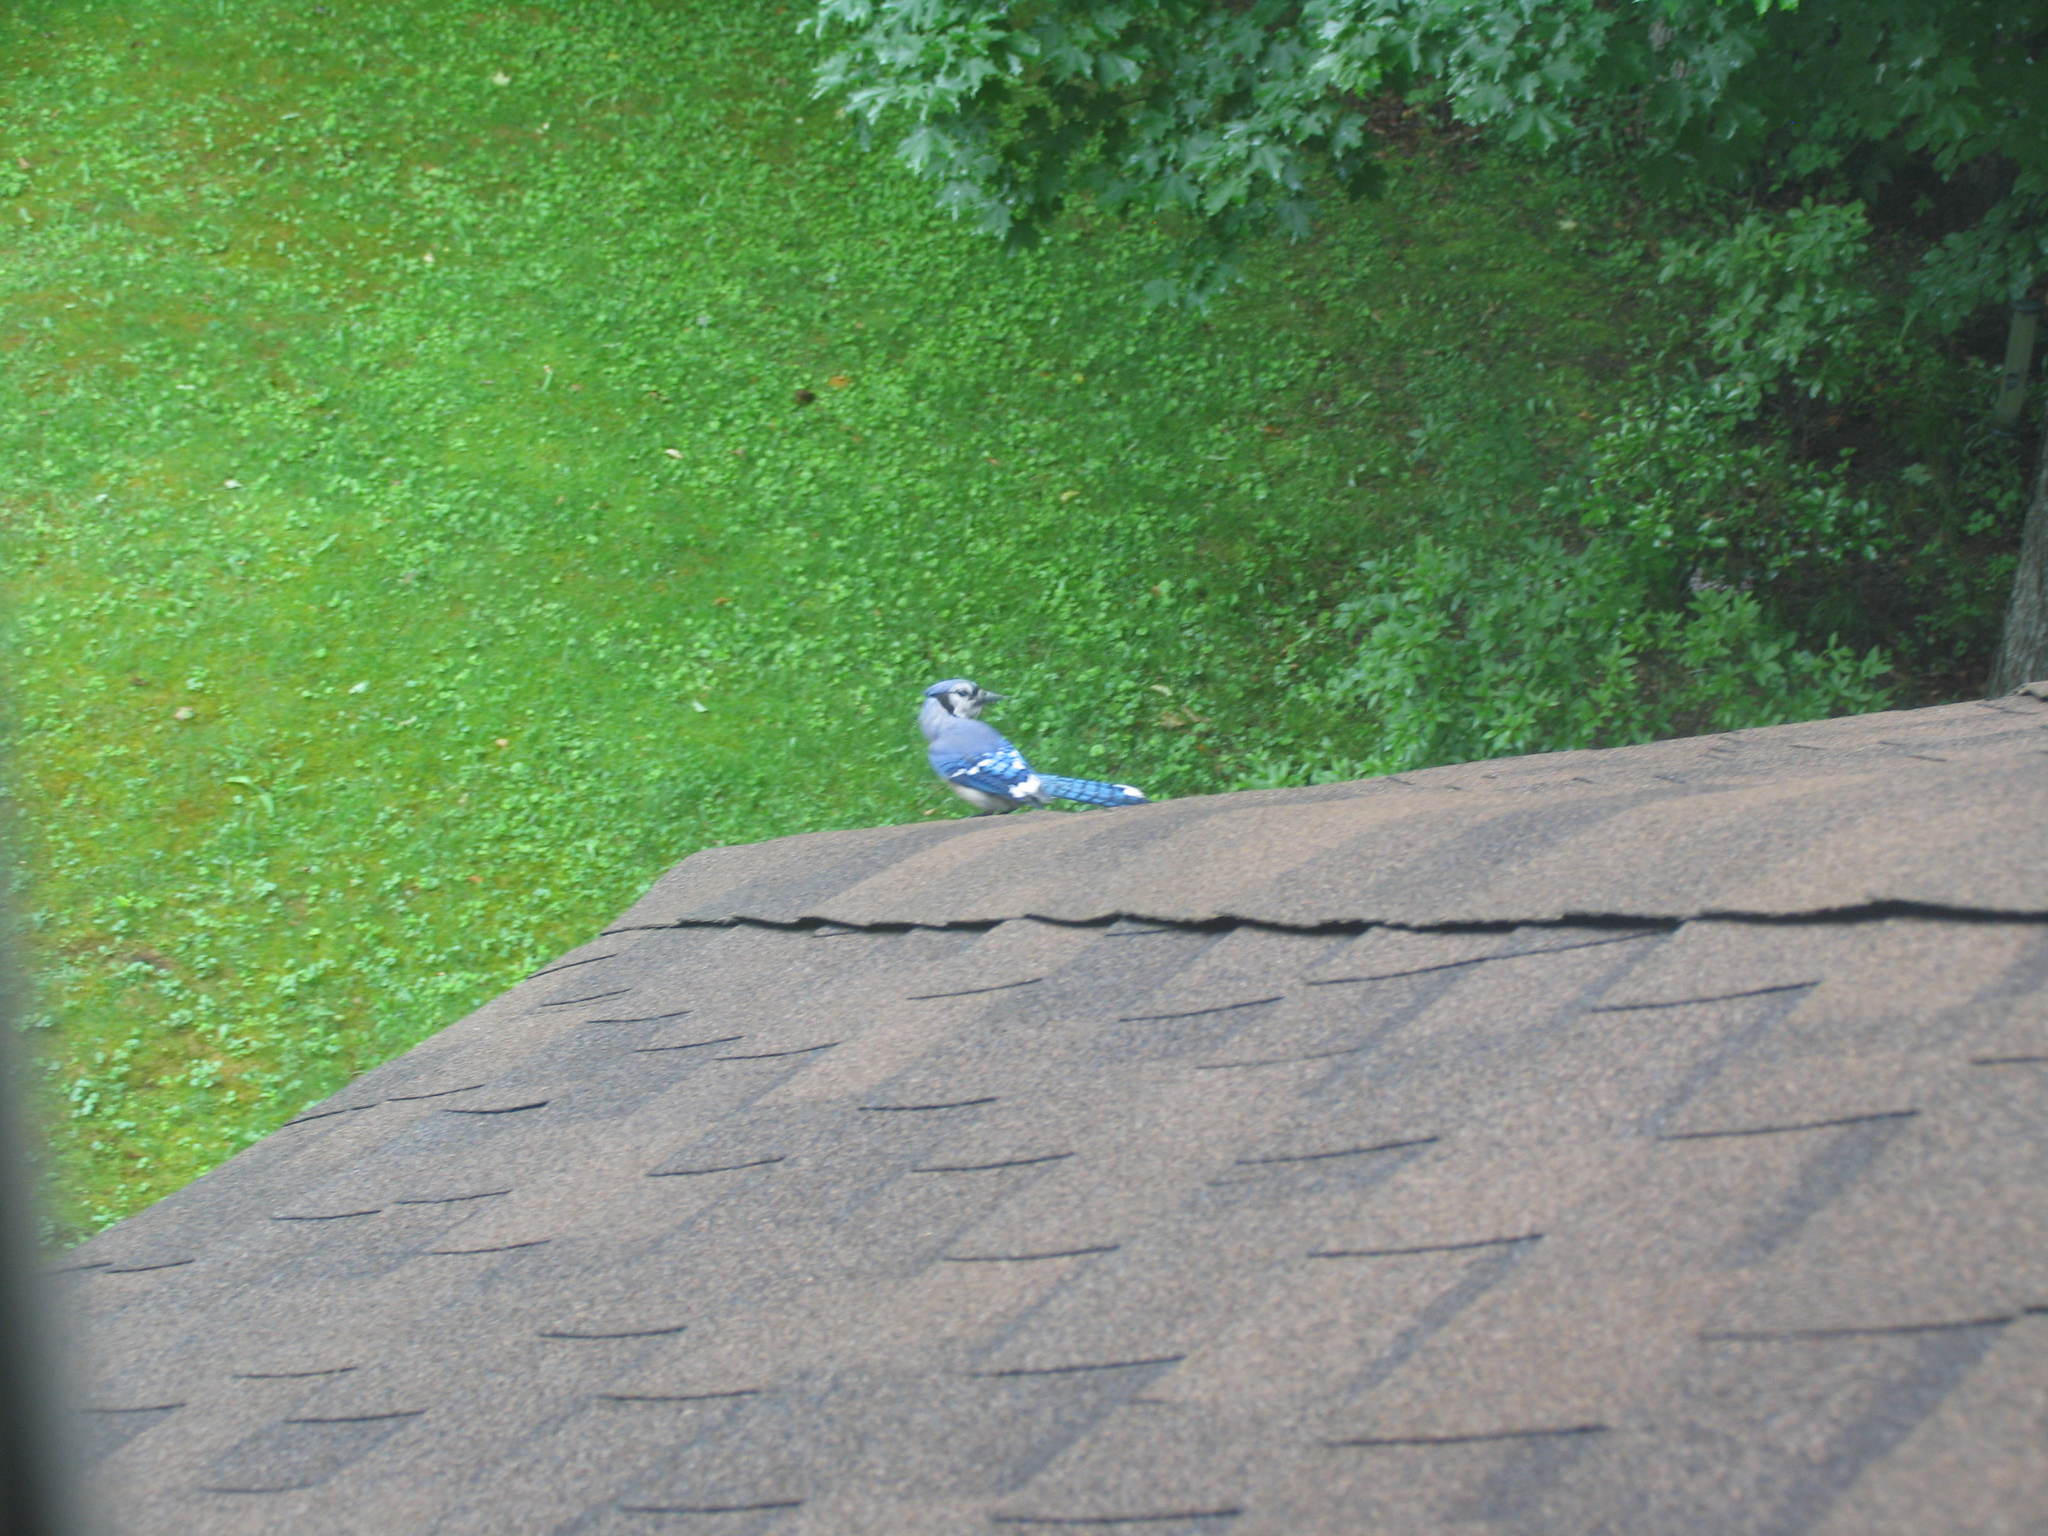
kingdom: Animalia
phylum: Chordata
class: Aves
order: Passeriformes
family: Corvidae
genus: Cyanocitta
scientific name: Cyanocitta cristata
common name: Blue jay
